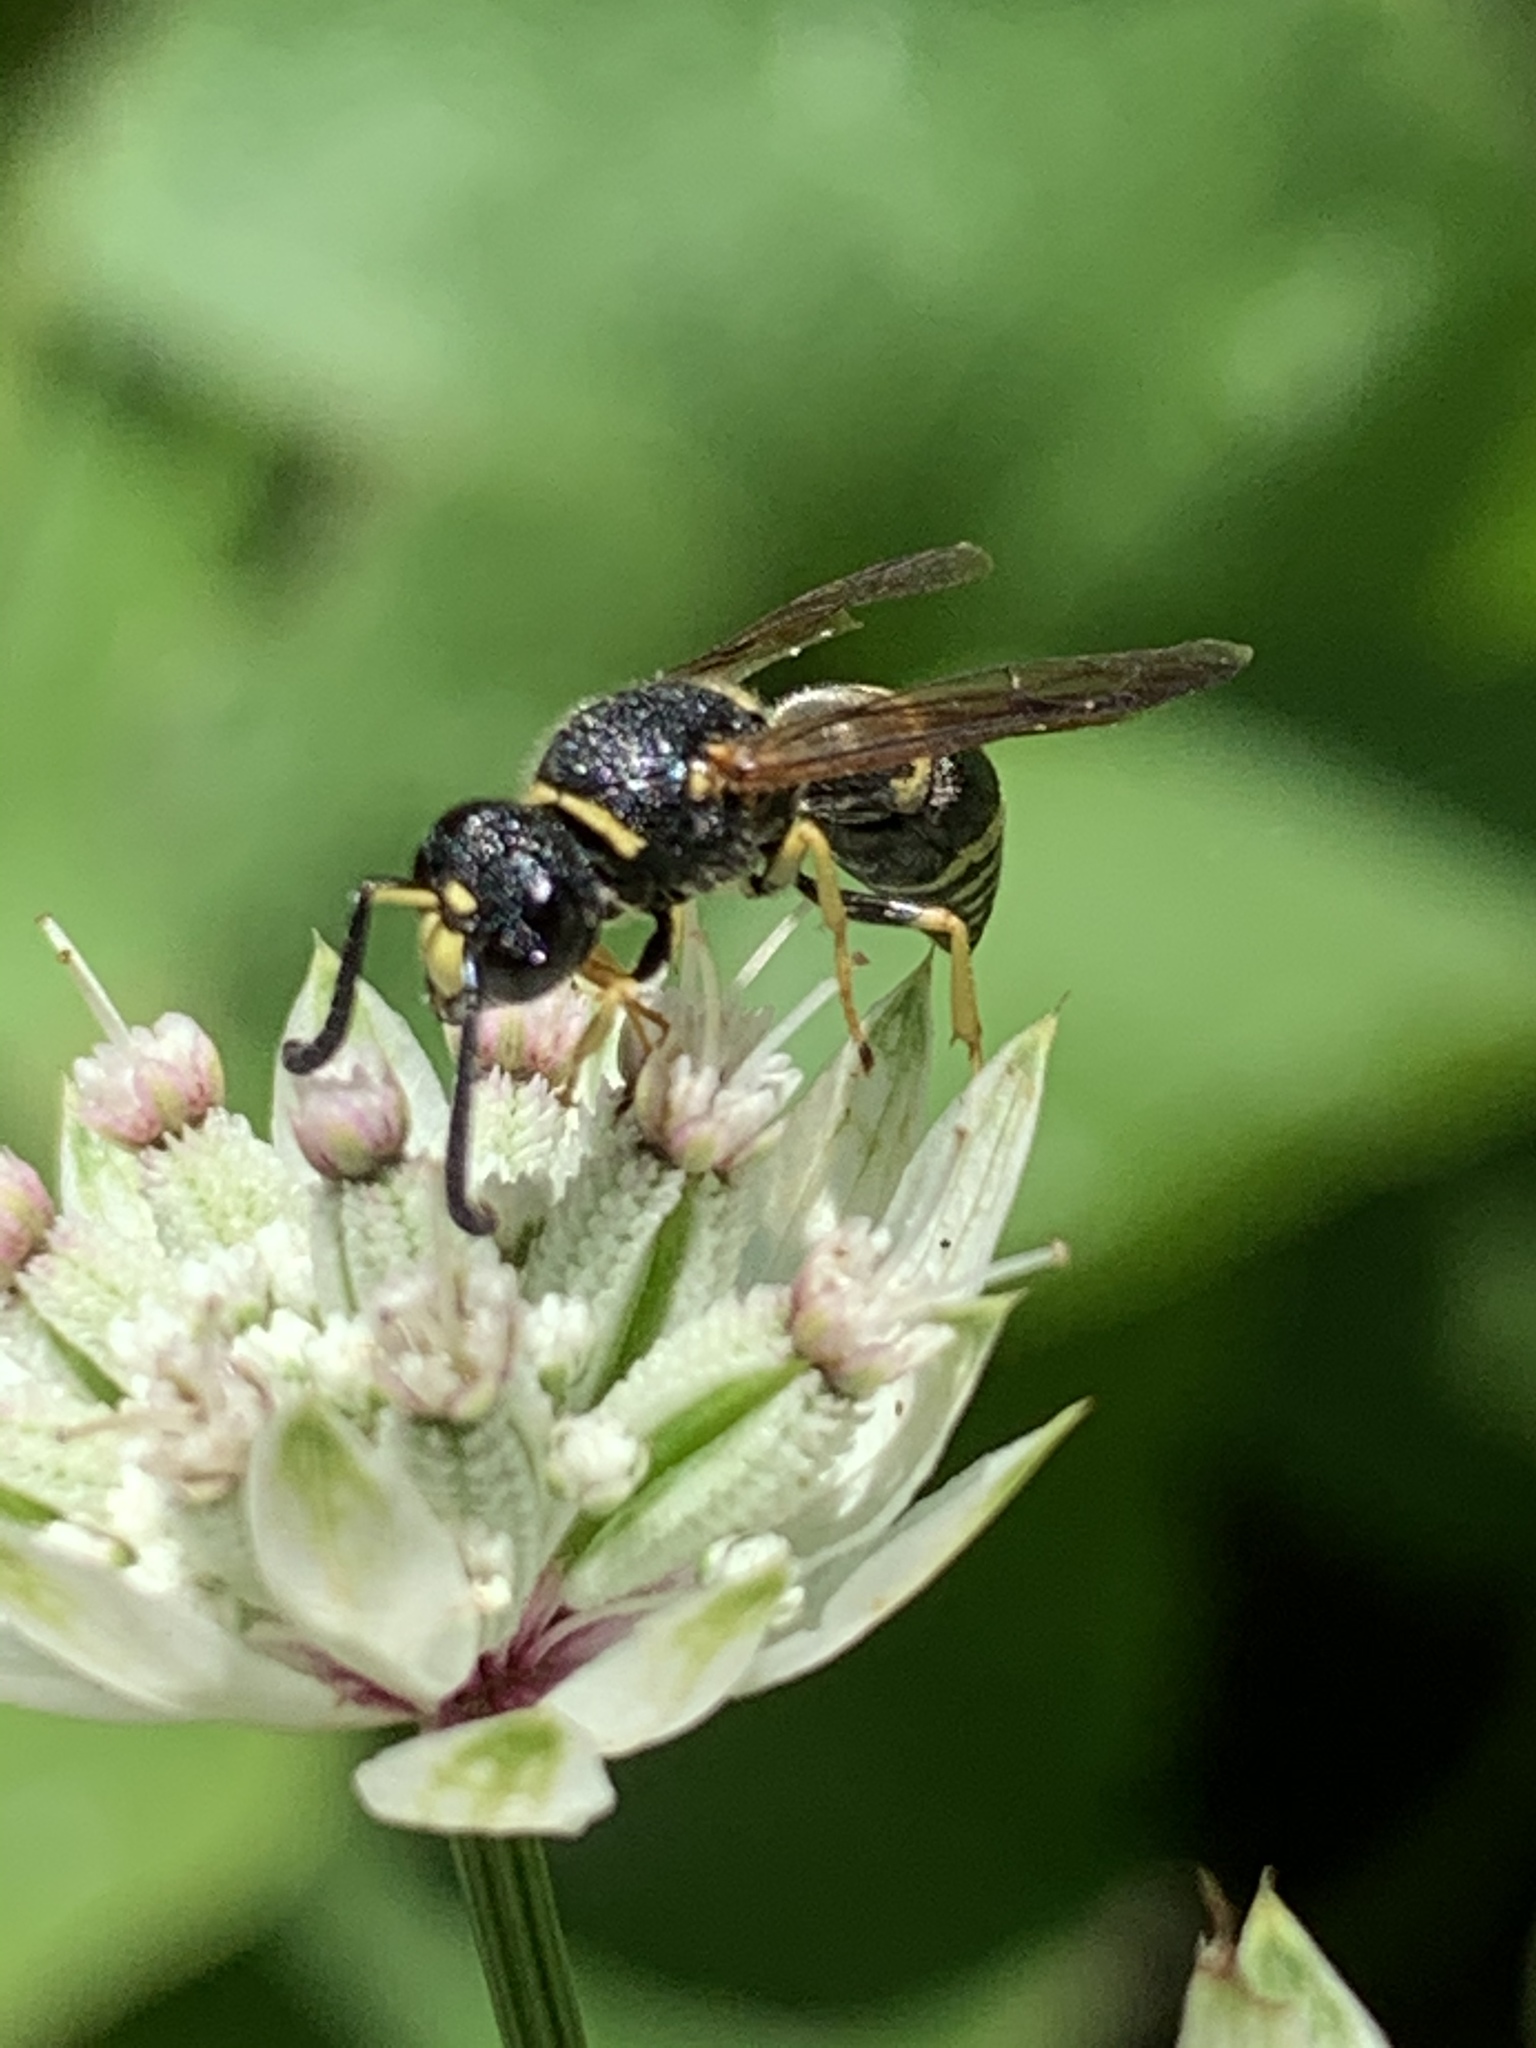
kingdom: Animalia
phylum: Arthropoda
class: Insecta
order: Hymenoptera
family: Eumenidae
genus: Euodynerus
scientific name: Euodynerus foraminatus
